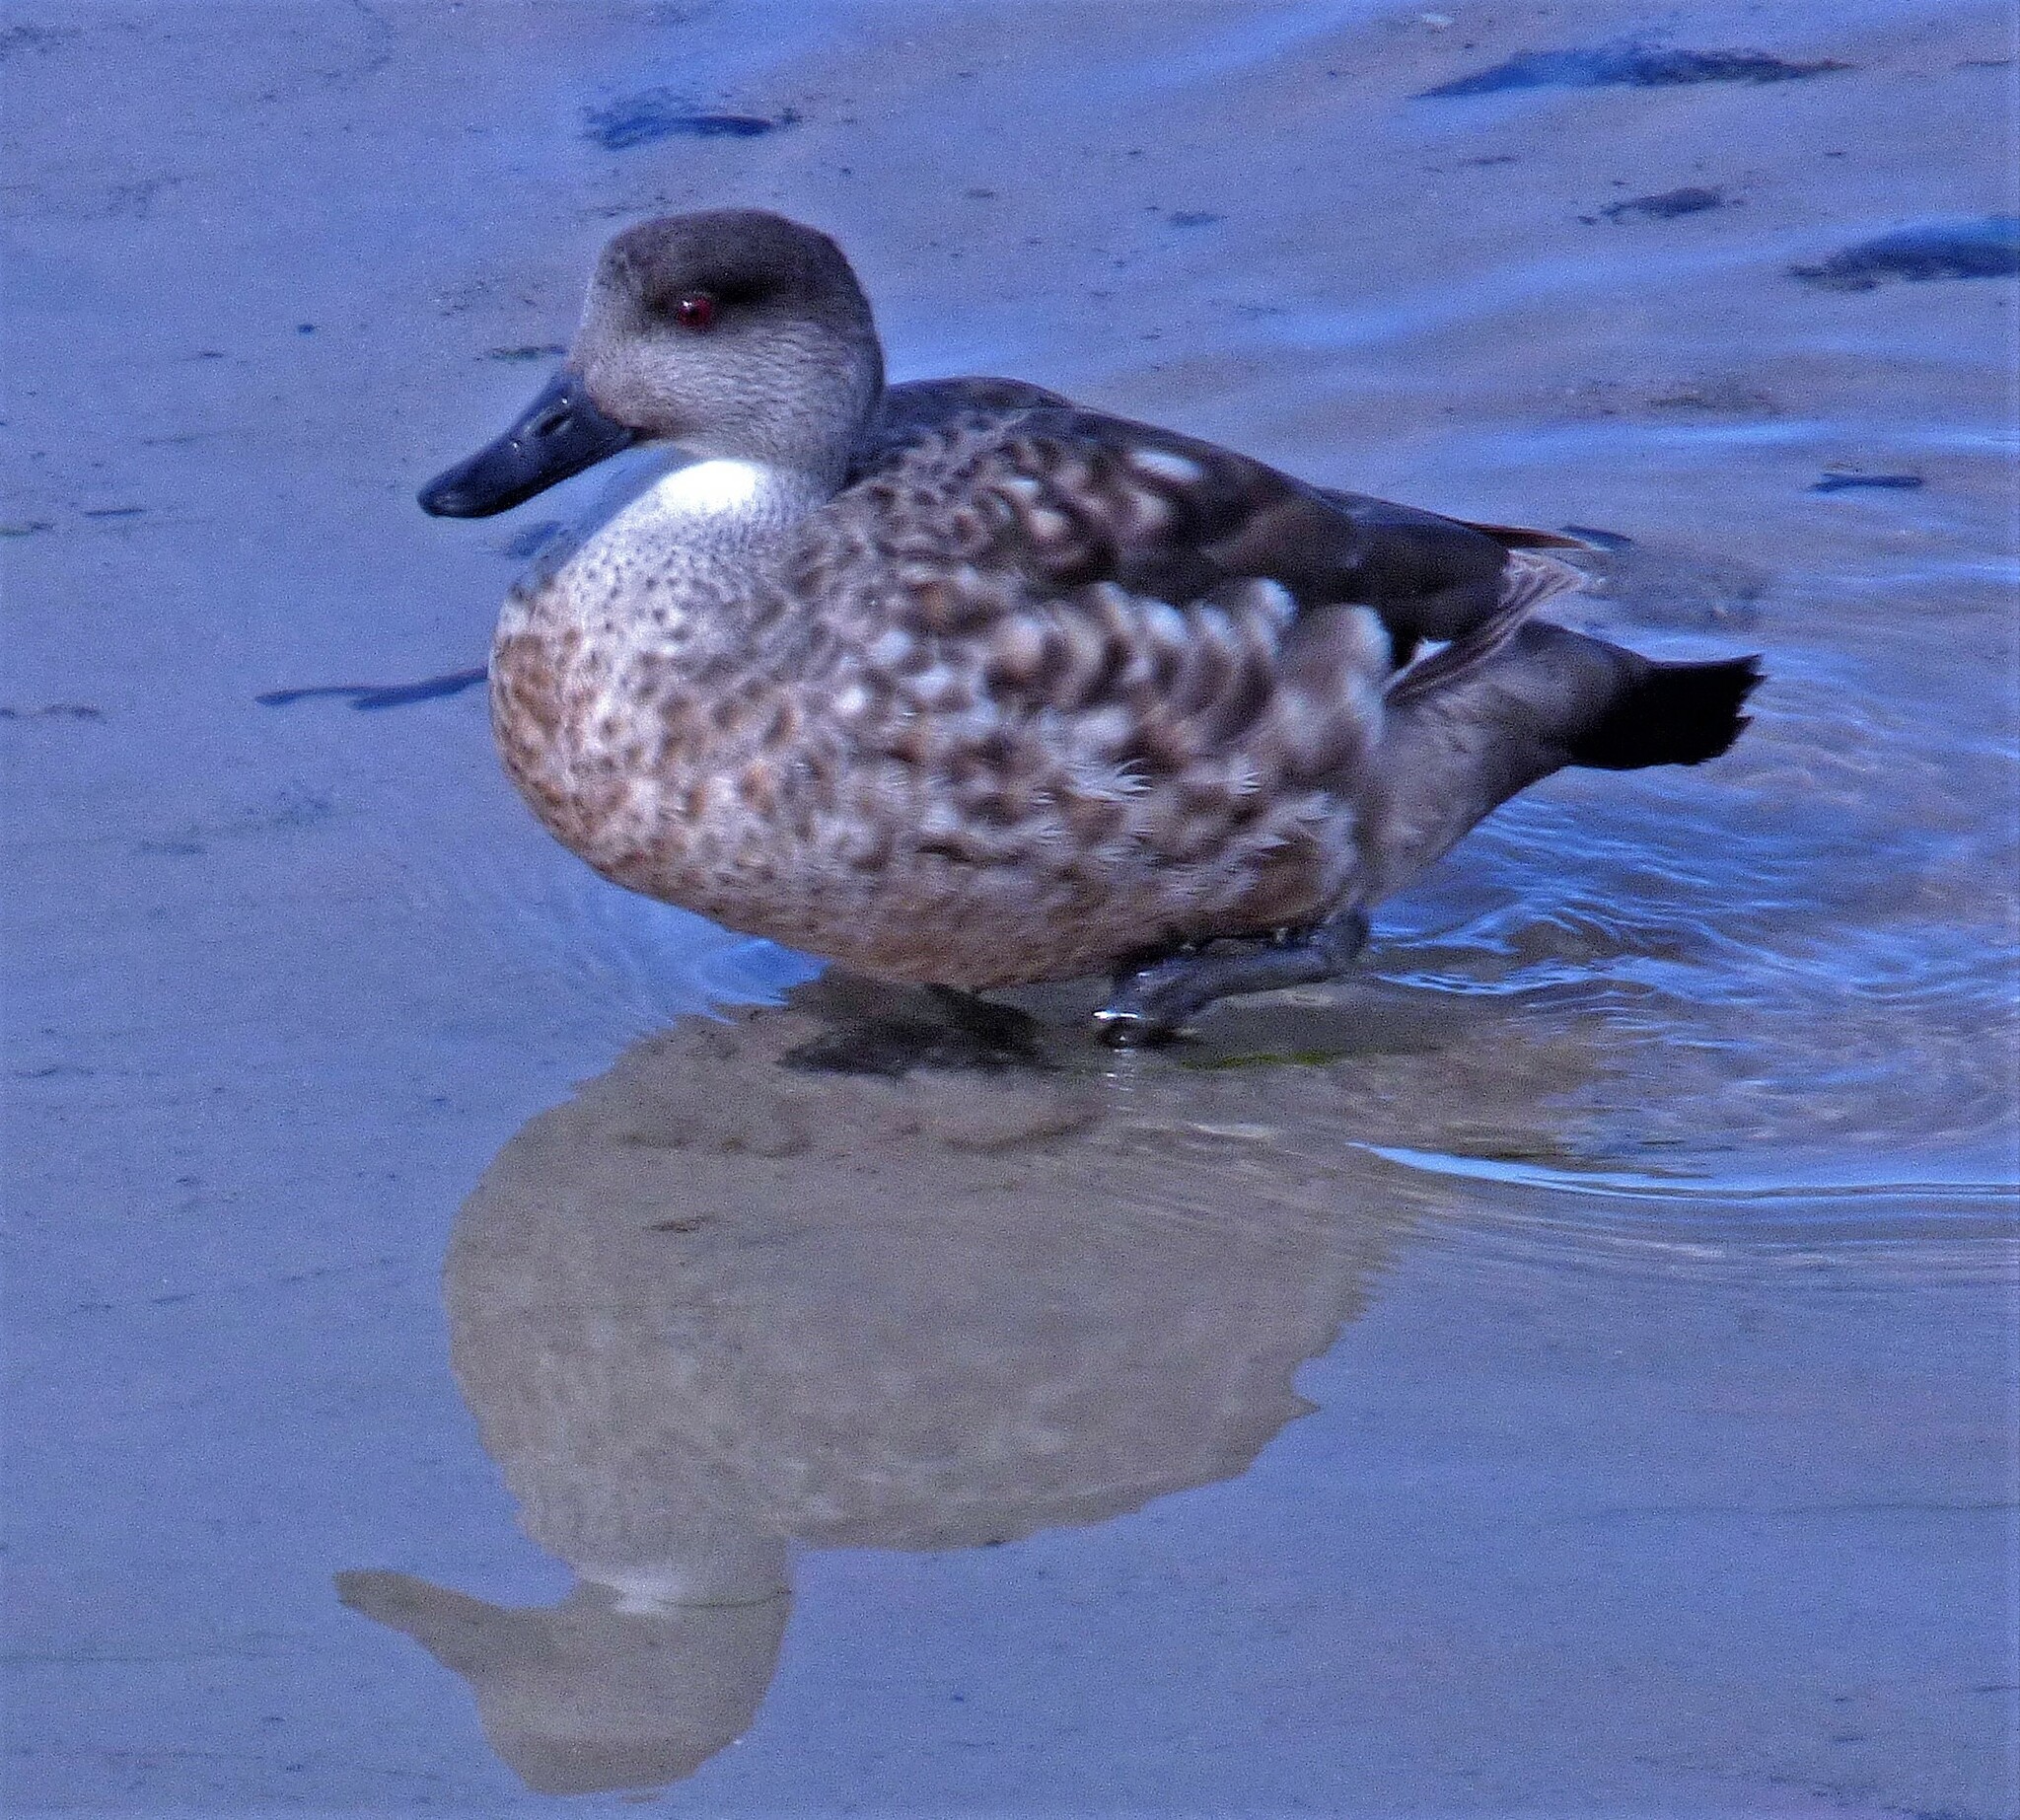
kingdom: Animalia
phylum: Chordata
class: Aves
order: Anseriformes
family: Anatidae
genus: Lophonetta
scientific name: Lophonetta specularioides
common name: Crested duck
